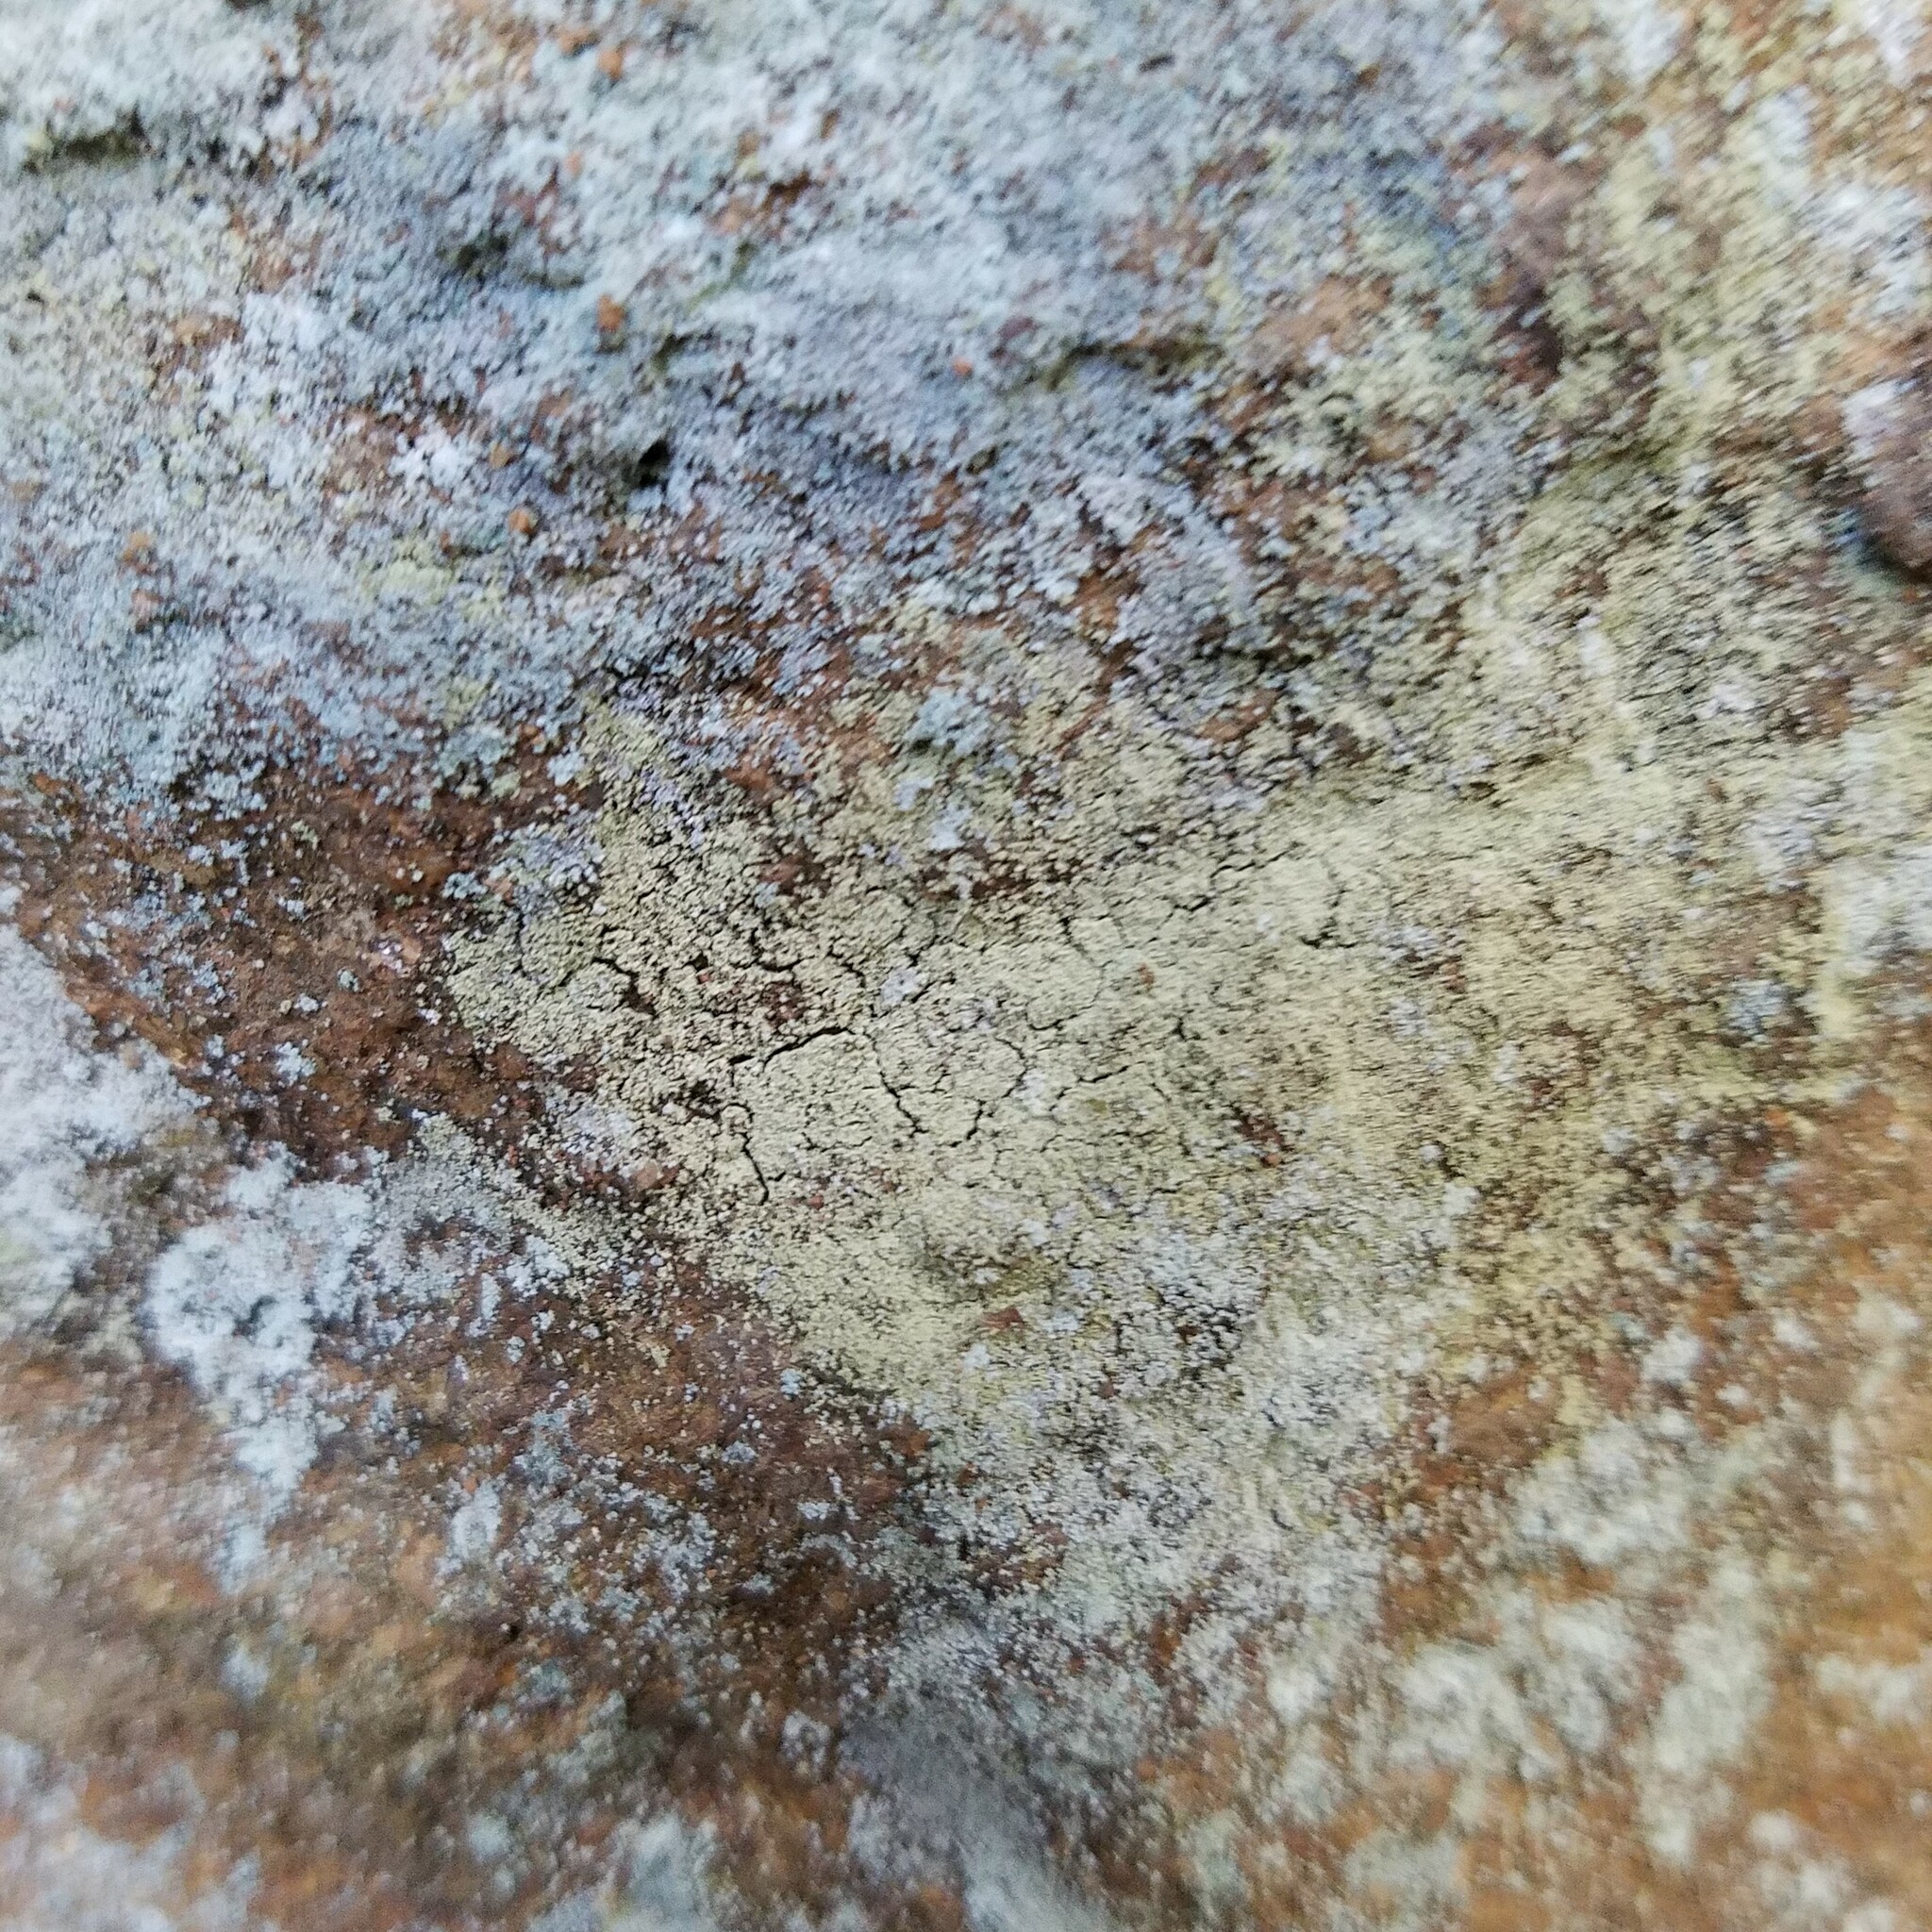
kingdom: Fungi
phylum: Ascomycota
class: Lecanoromycetes
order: Lecanorales
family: Stereocaulaceae
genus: Lepraria
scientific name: Lepraria vouauxii
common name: Vouaux's dust lichen
